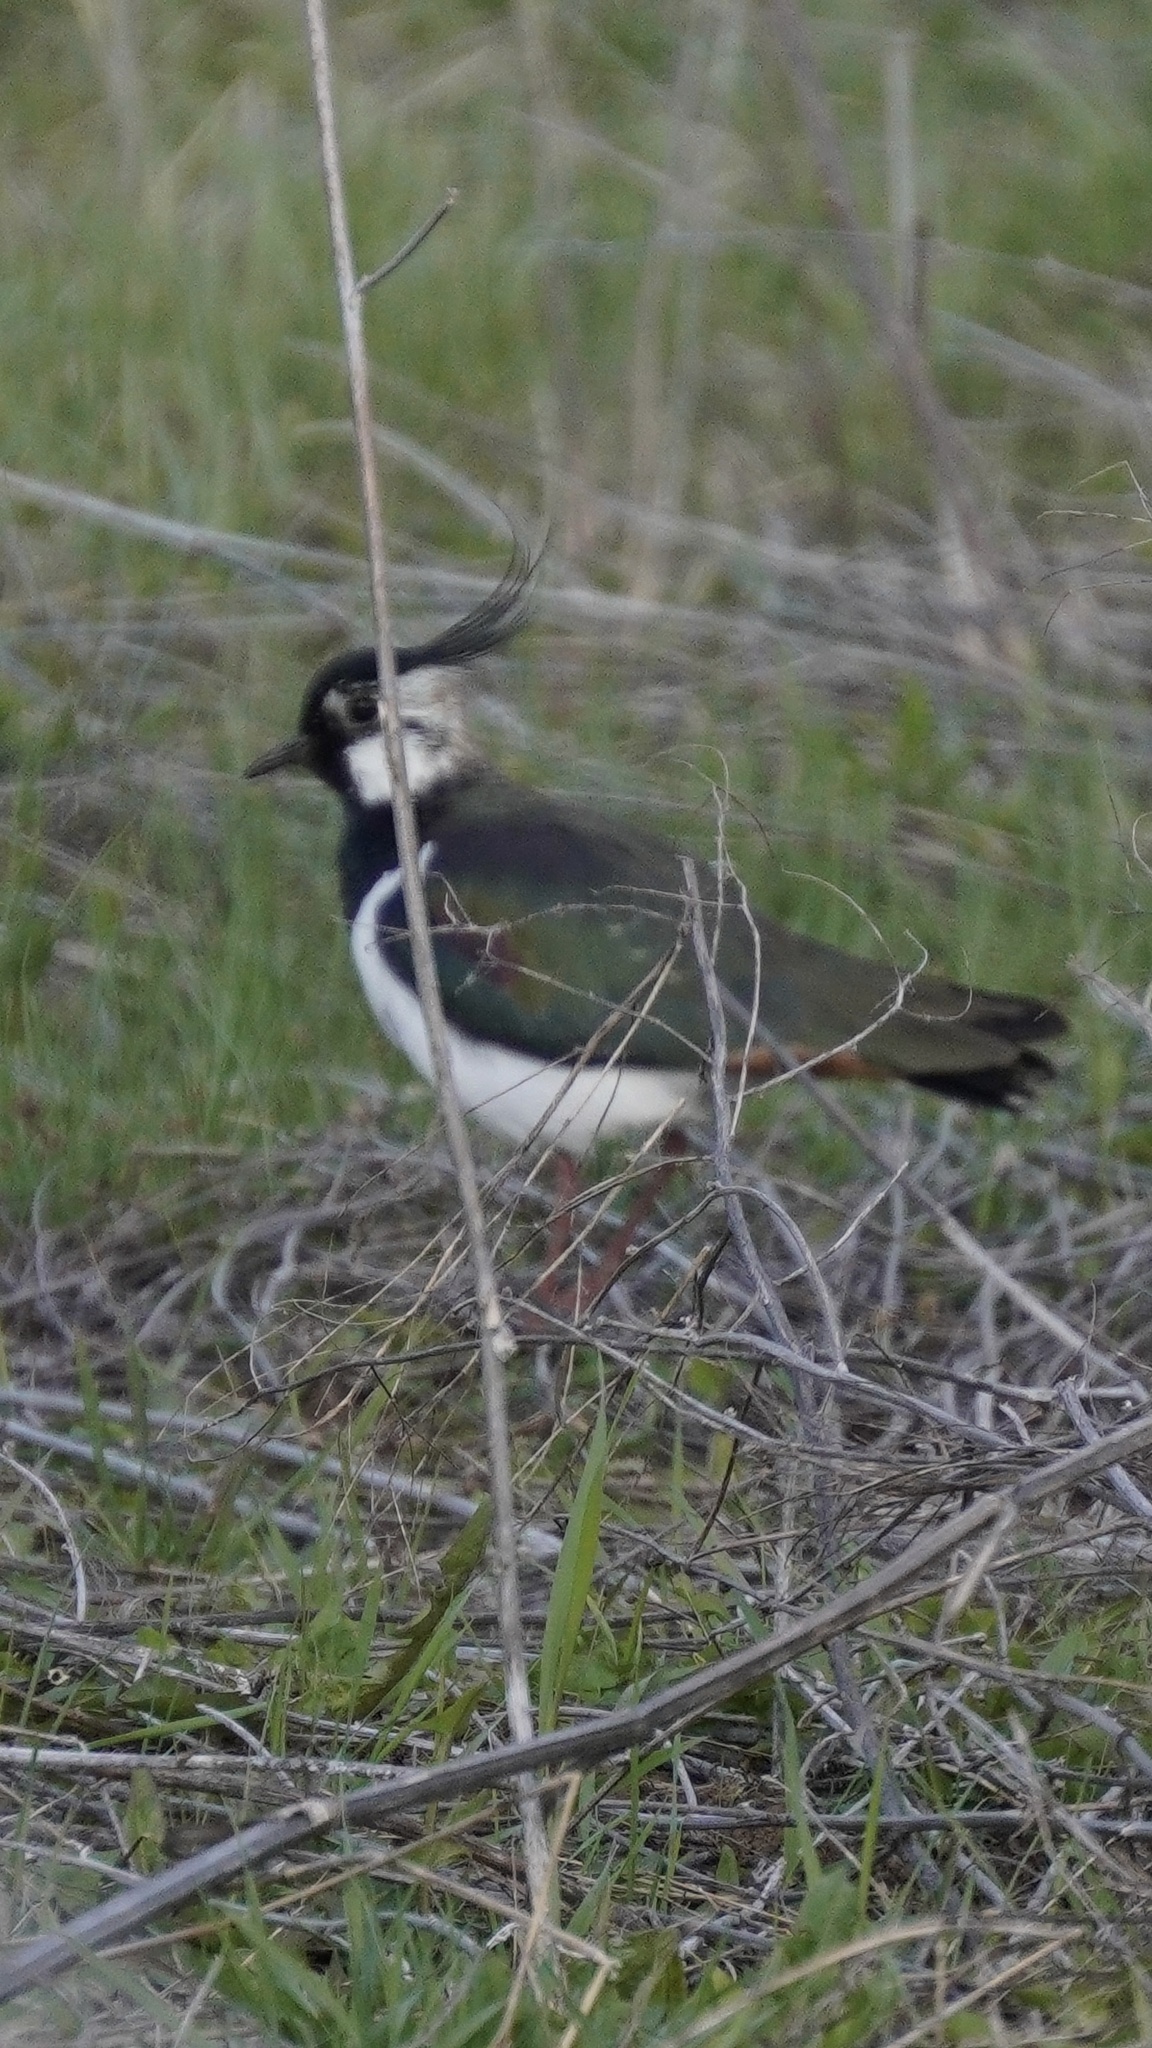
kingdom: Animalia
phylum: Chordata
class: Aves
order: Charadriiformes
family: Charadriidae
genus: Vanellus
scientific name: Vanellus vanellus
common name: Northern lapwing
